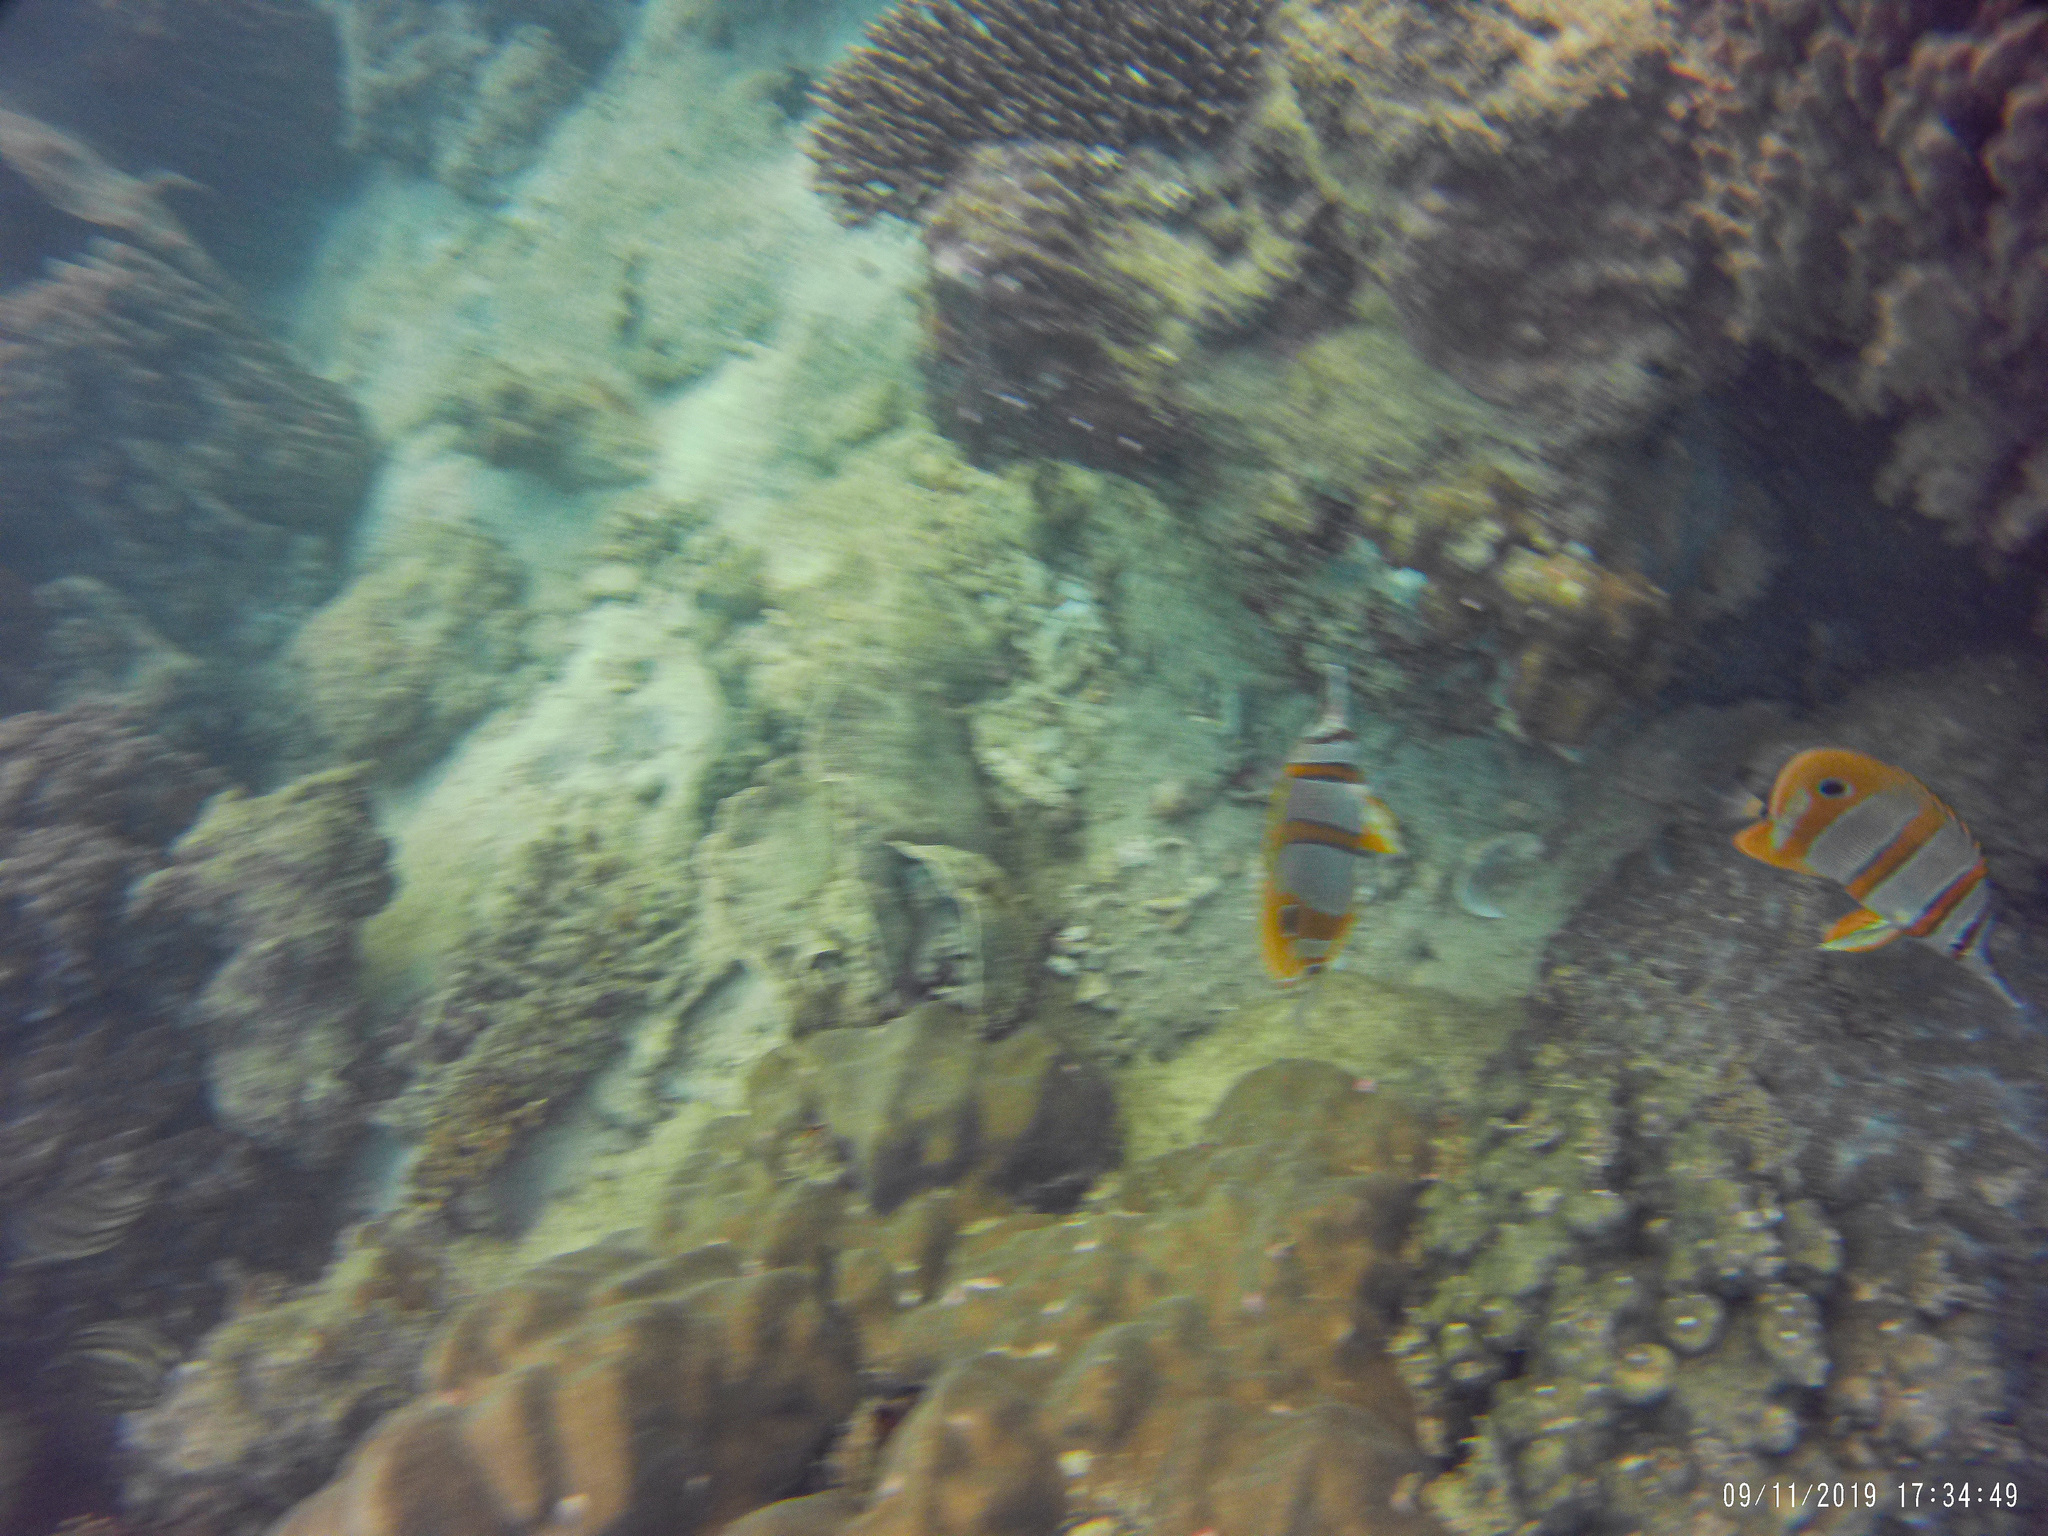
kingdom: Animalia
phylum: Chordata
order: Perciformes
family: Chaetodontidae
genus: Chelmon
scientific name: Chelmon rostratus
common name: Beaked butterflyfish
